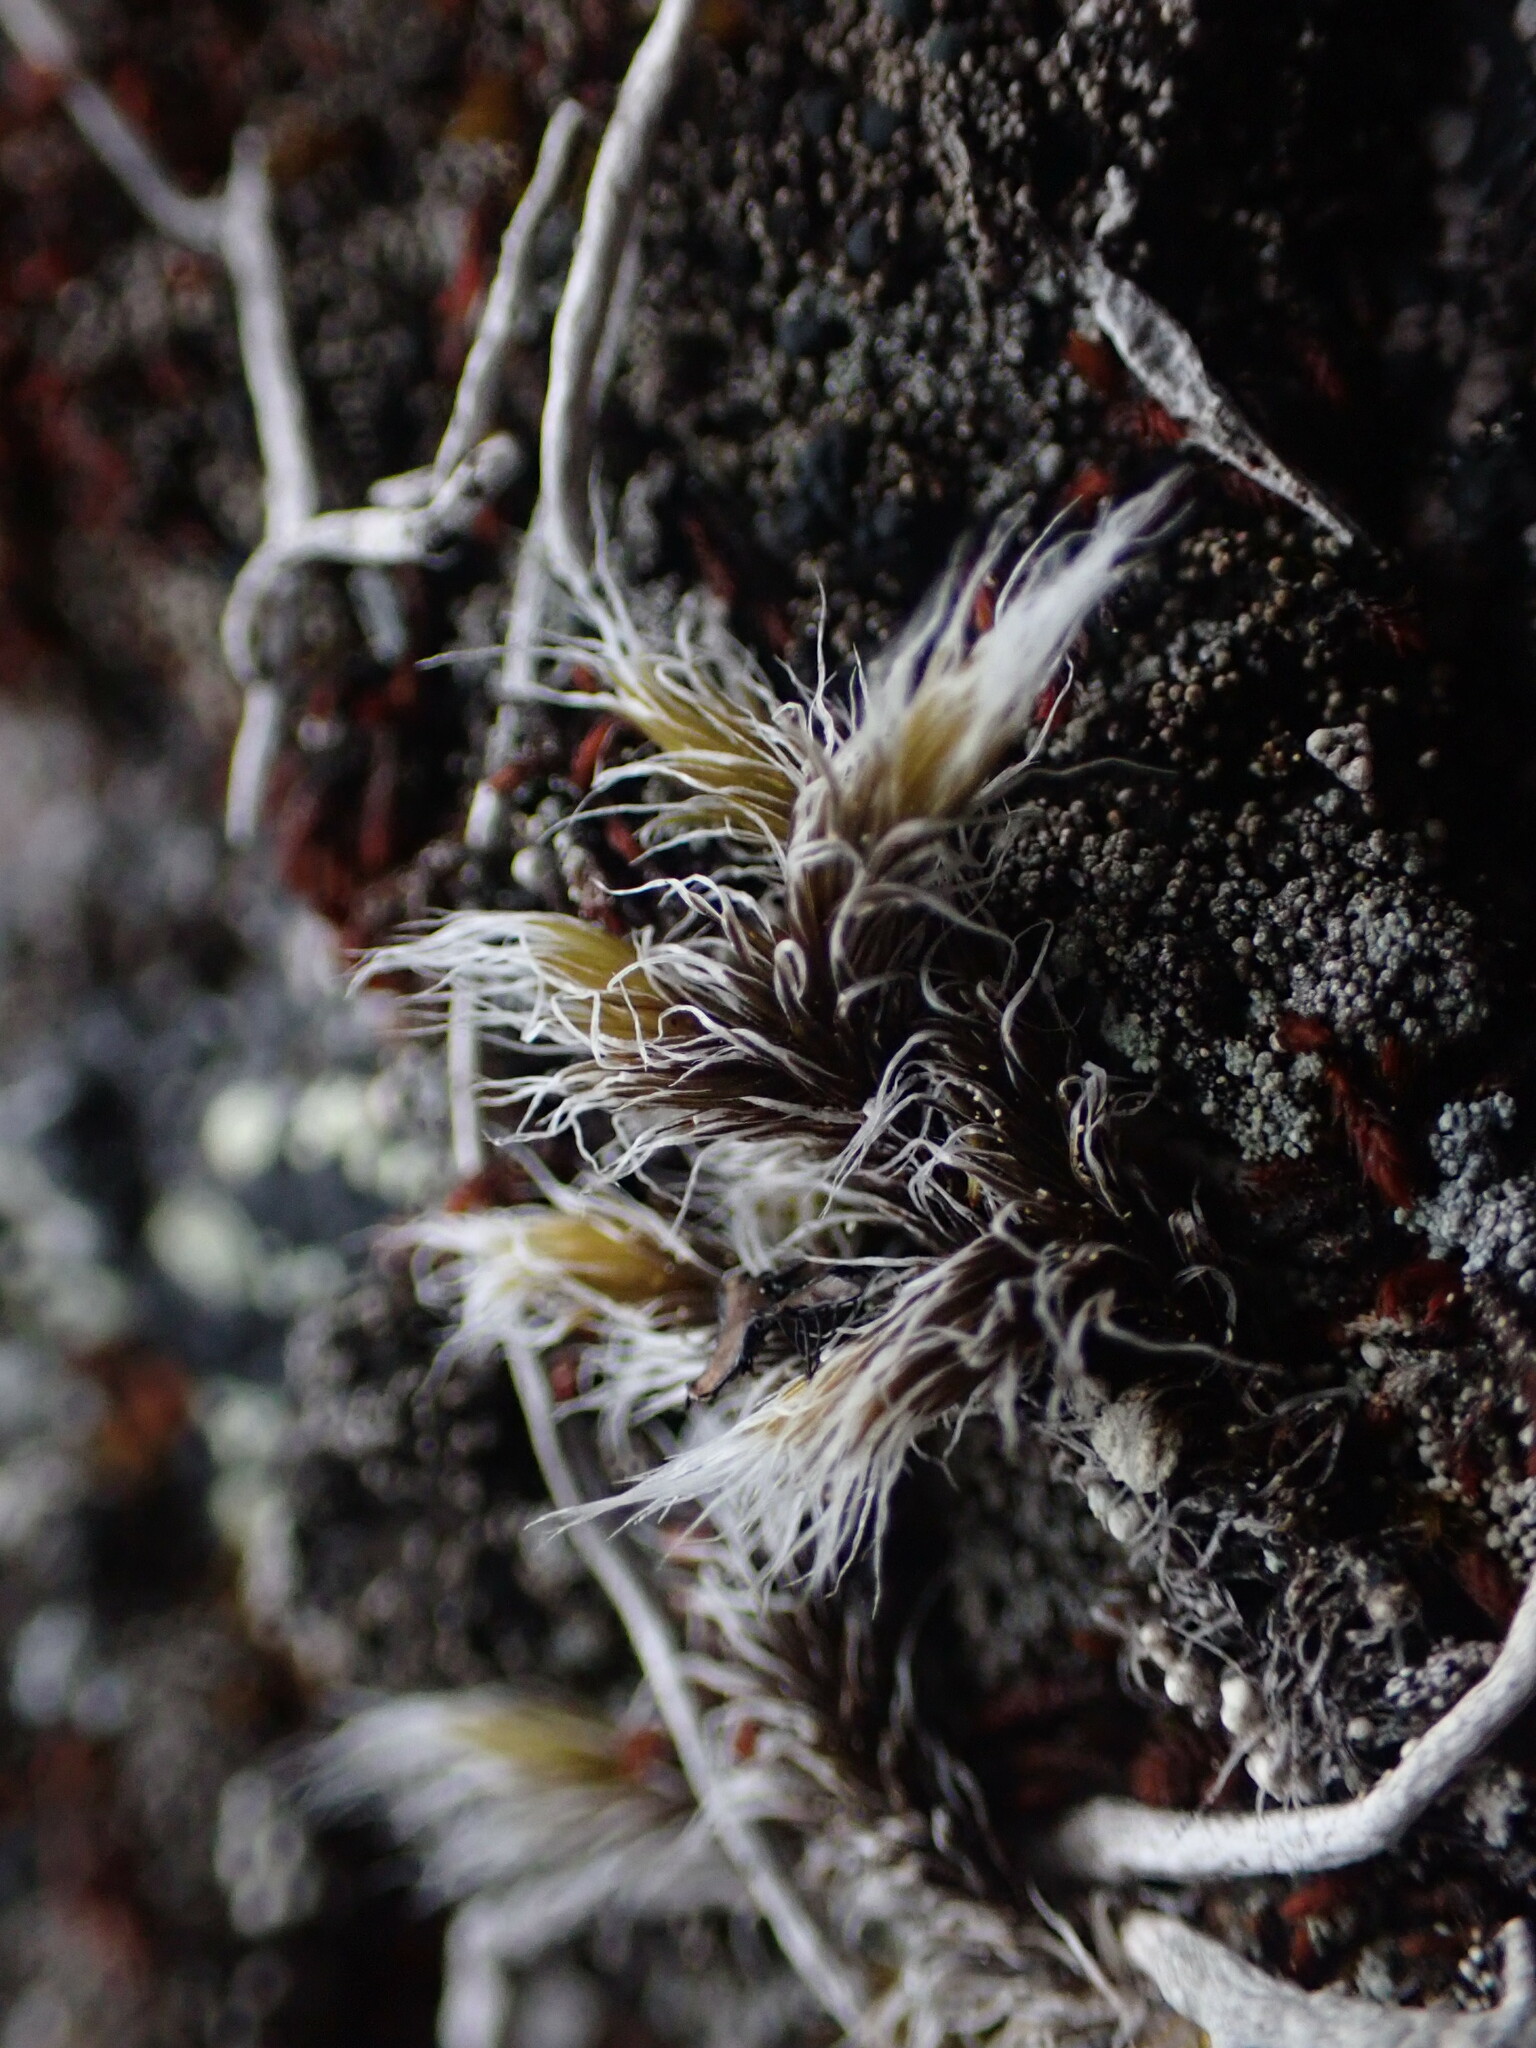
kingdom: Plantae
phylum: Bryophyta
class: Bryopsida
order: Grimmiales
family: Grimmiaceae
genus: Racomitrium
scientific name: Racomitrium lanuginosum
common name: Hoary rock moss
